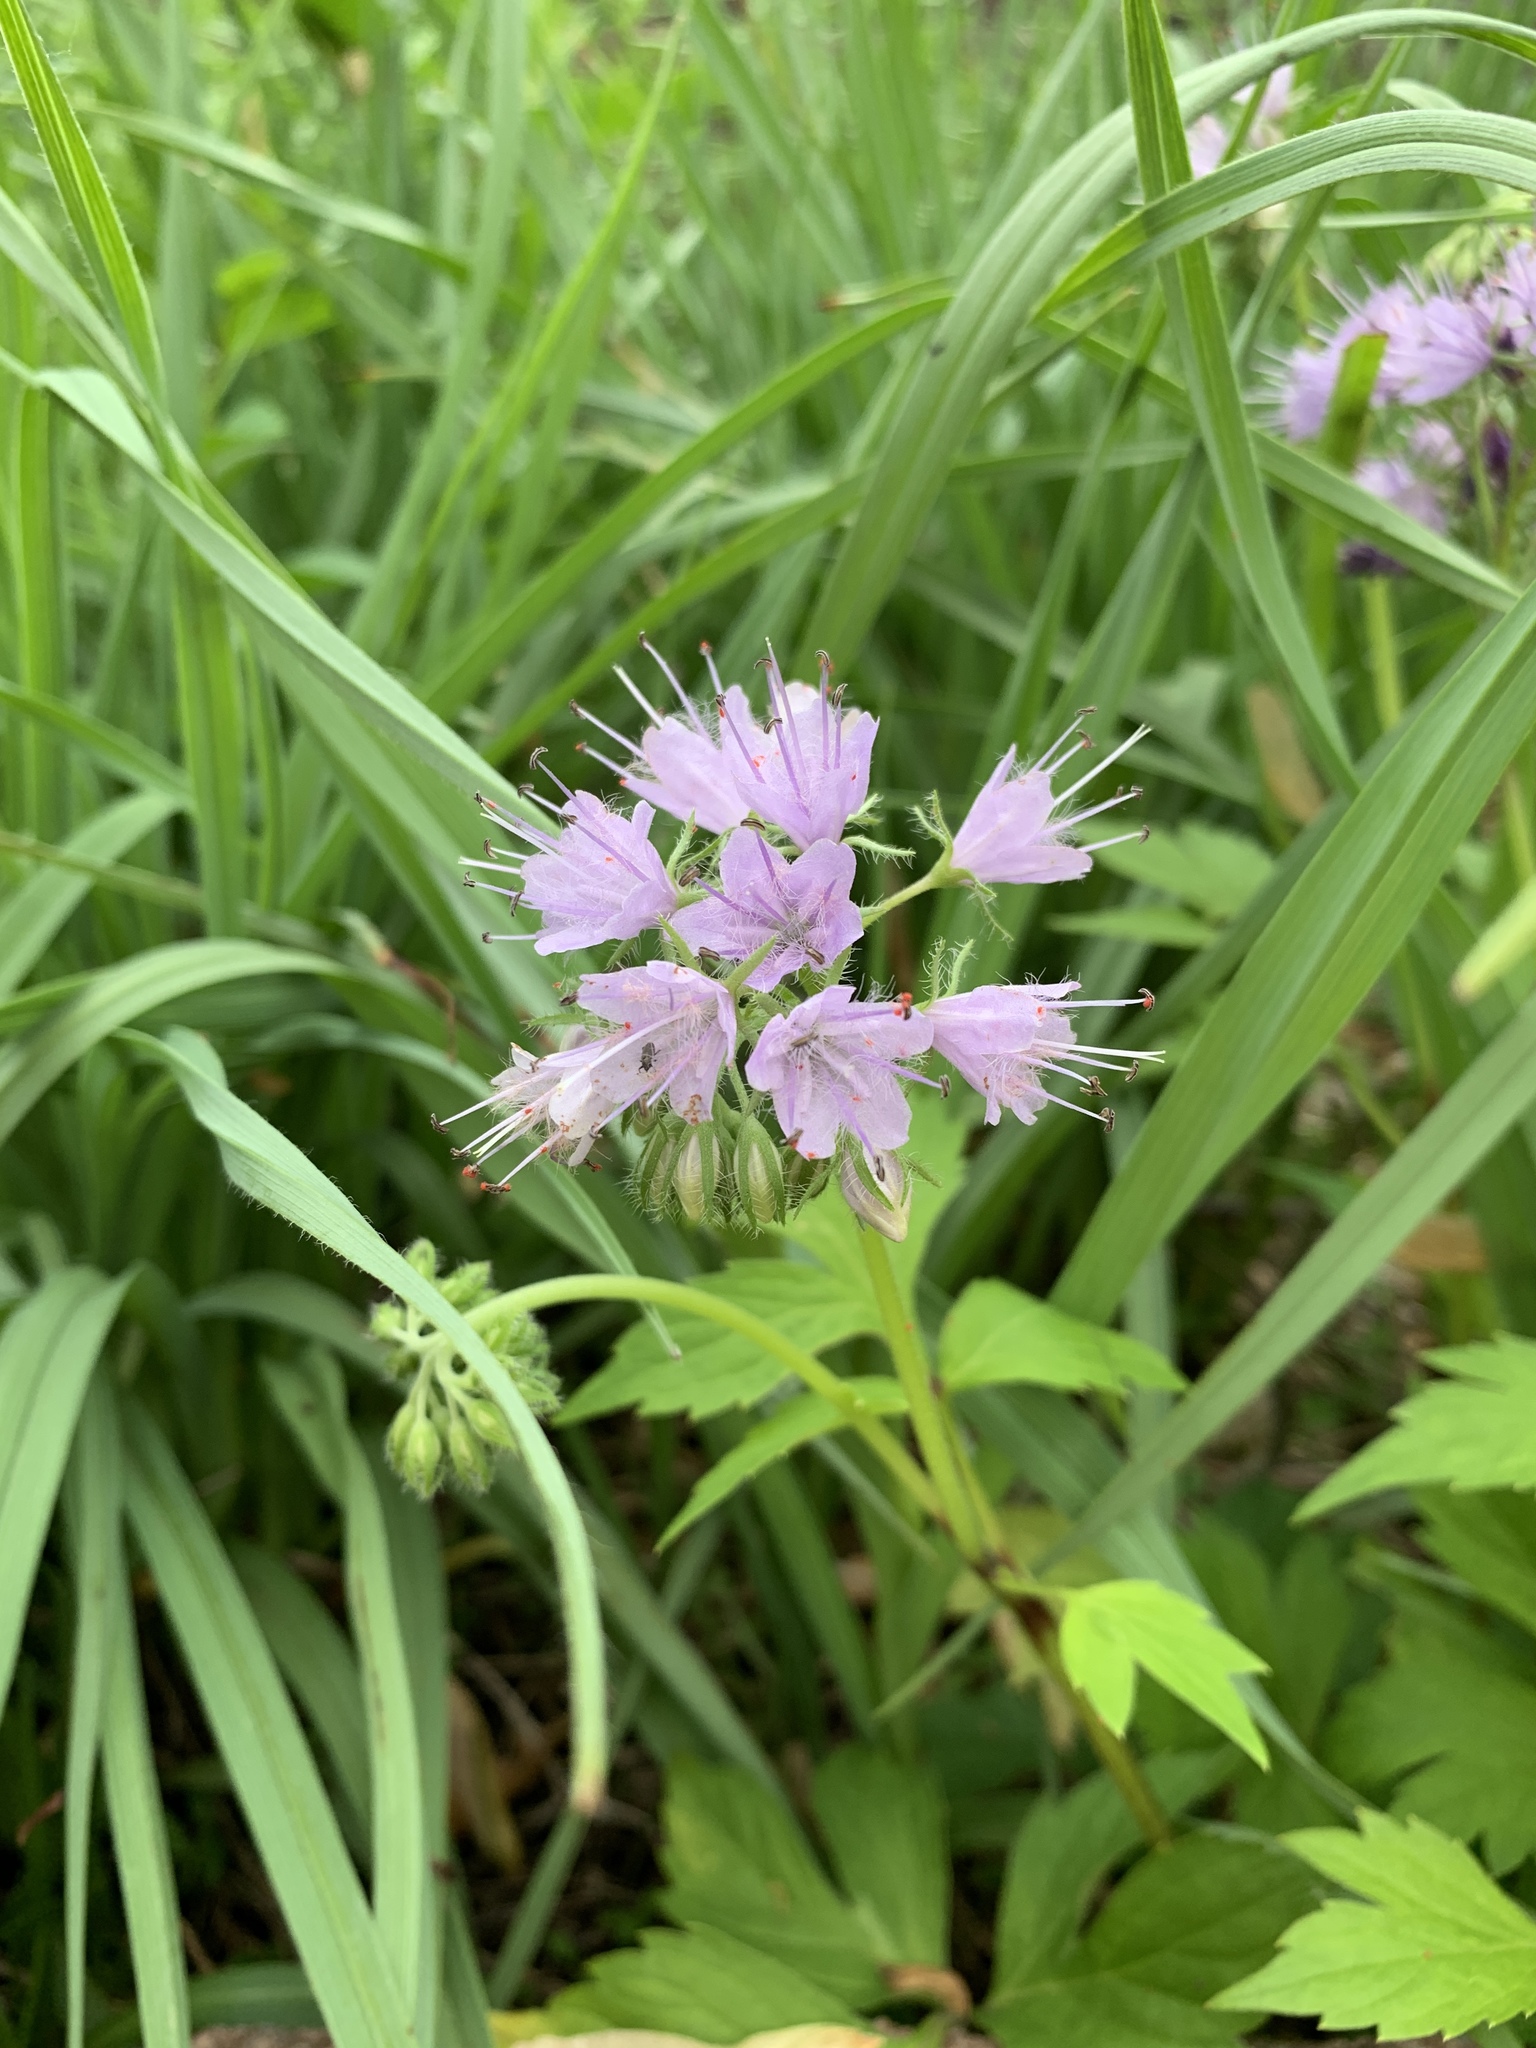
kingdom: Plantae
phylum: Tracheophyta
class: Magnoliopsida
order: Boraginales
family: Hydrophyllaceae
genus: Hydrophyllum
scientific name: Hydrophyllum virginianum
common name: Virginia waterleaf
